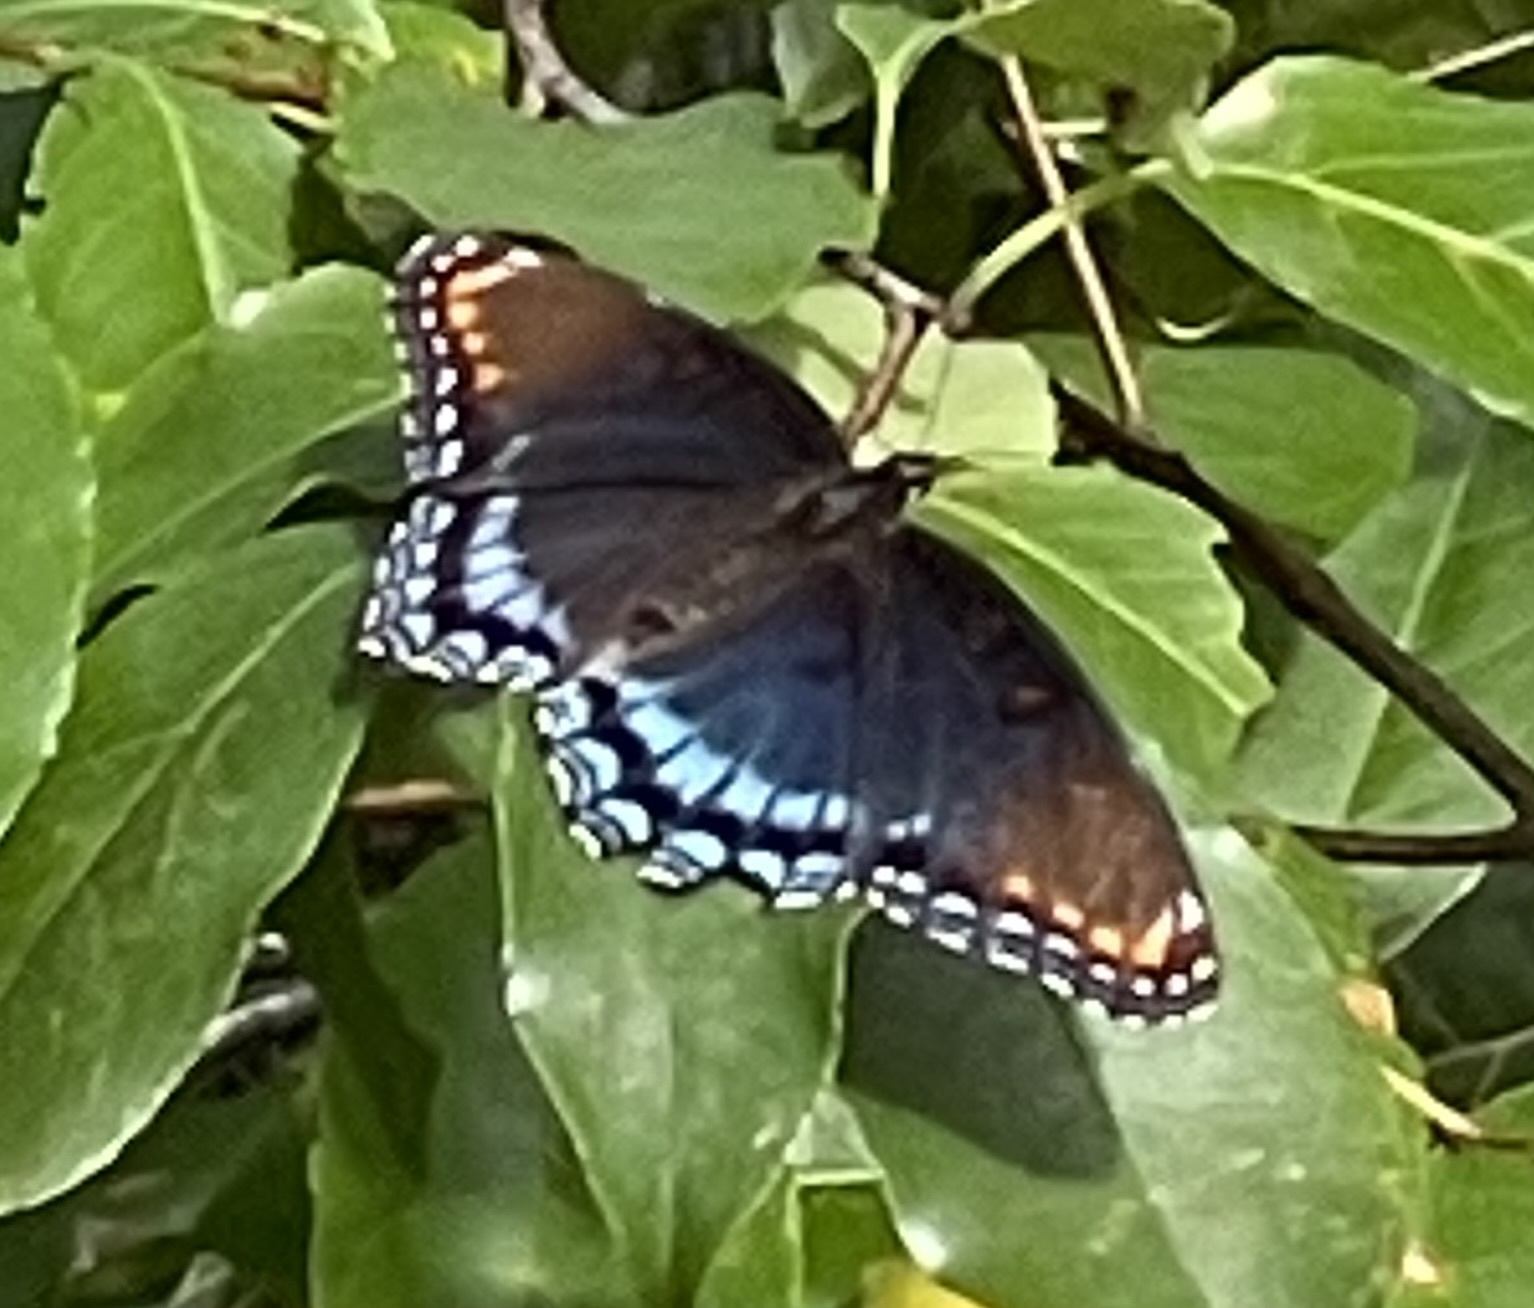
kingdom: Animalia
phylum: Arthropoda
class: Insecta
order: Lepidoptera
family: Nymphalidae
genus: Limenitis
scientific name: Limenitis astyanax
